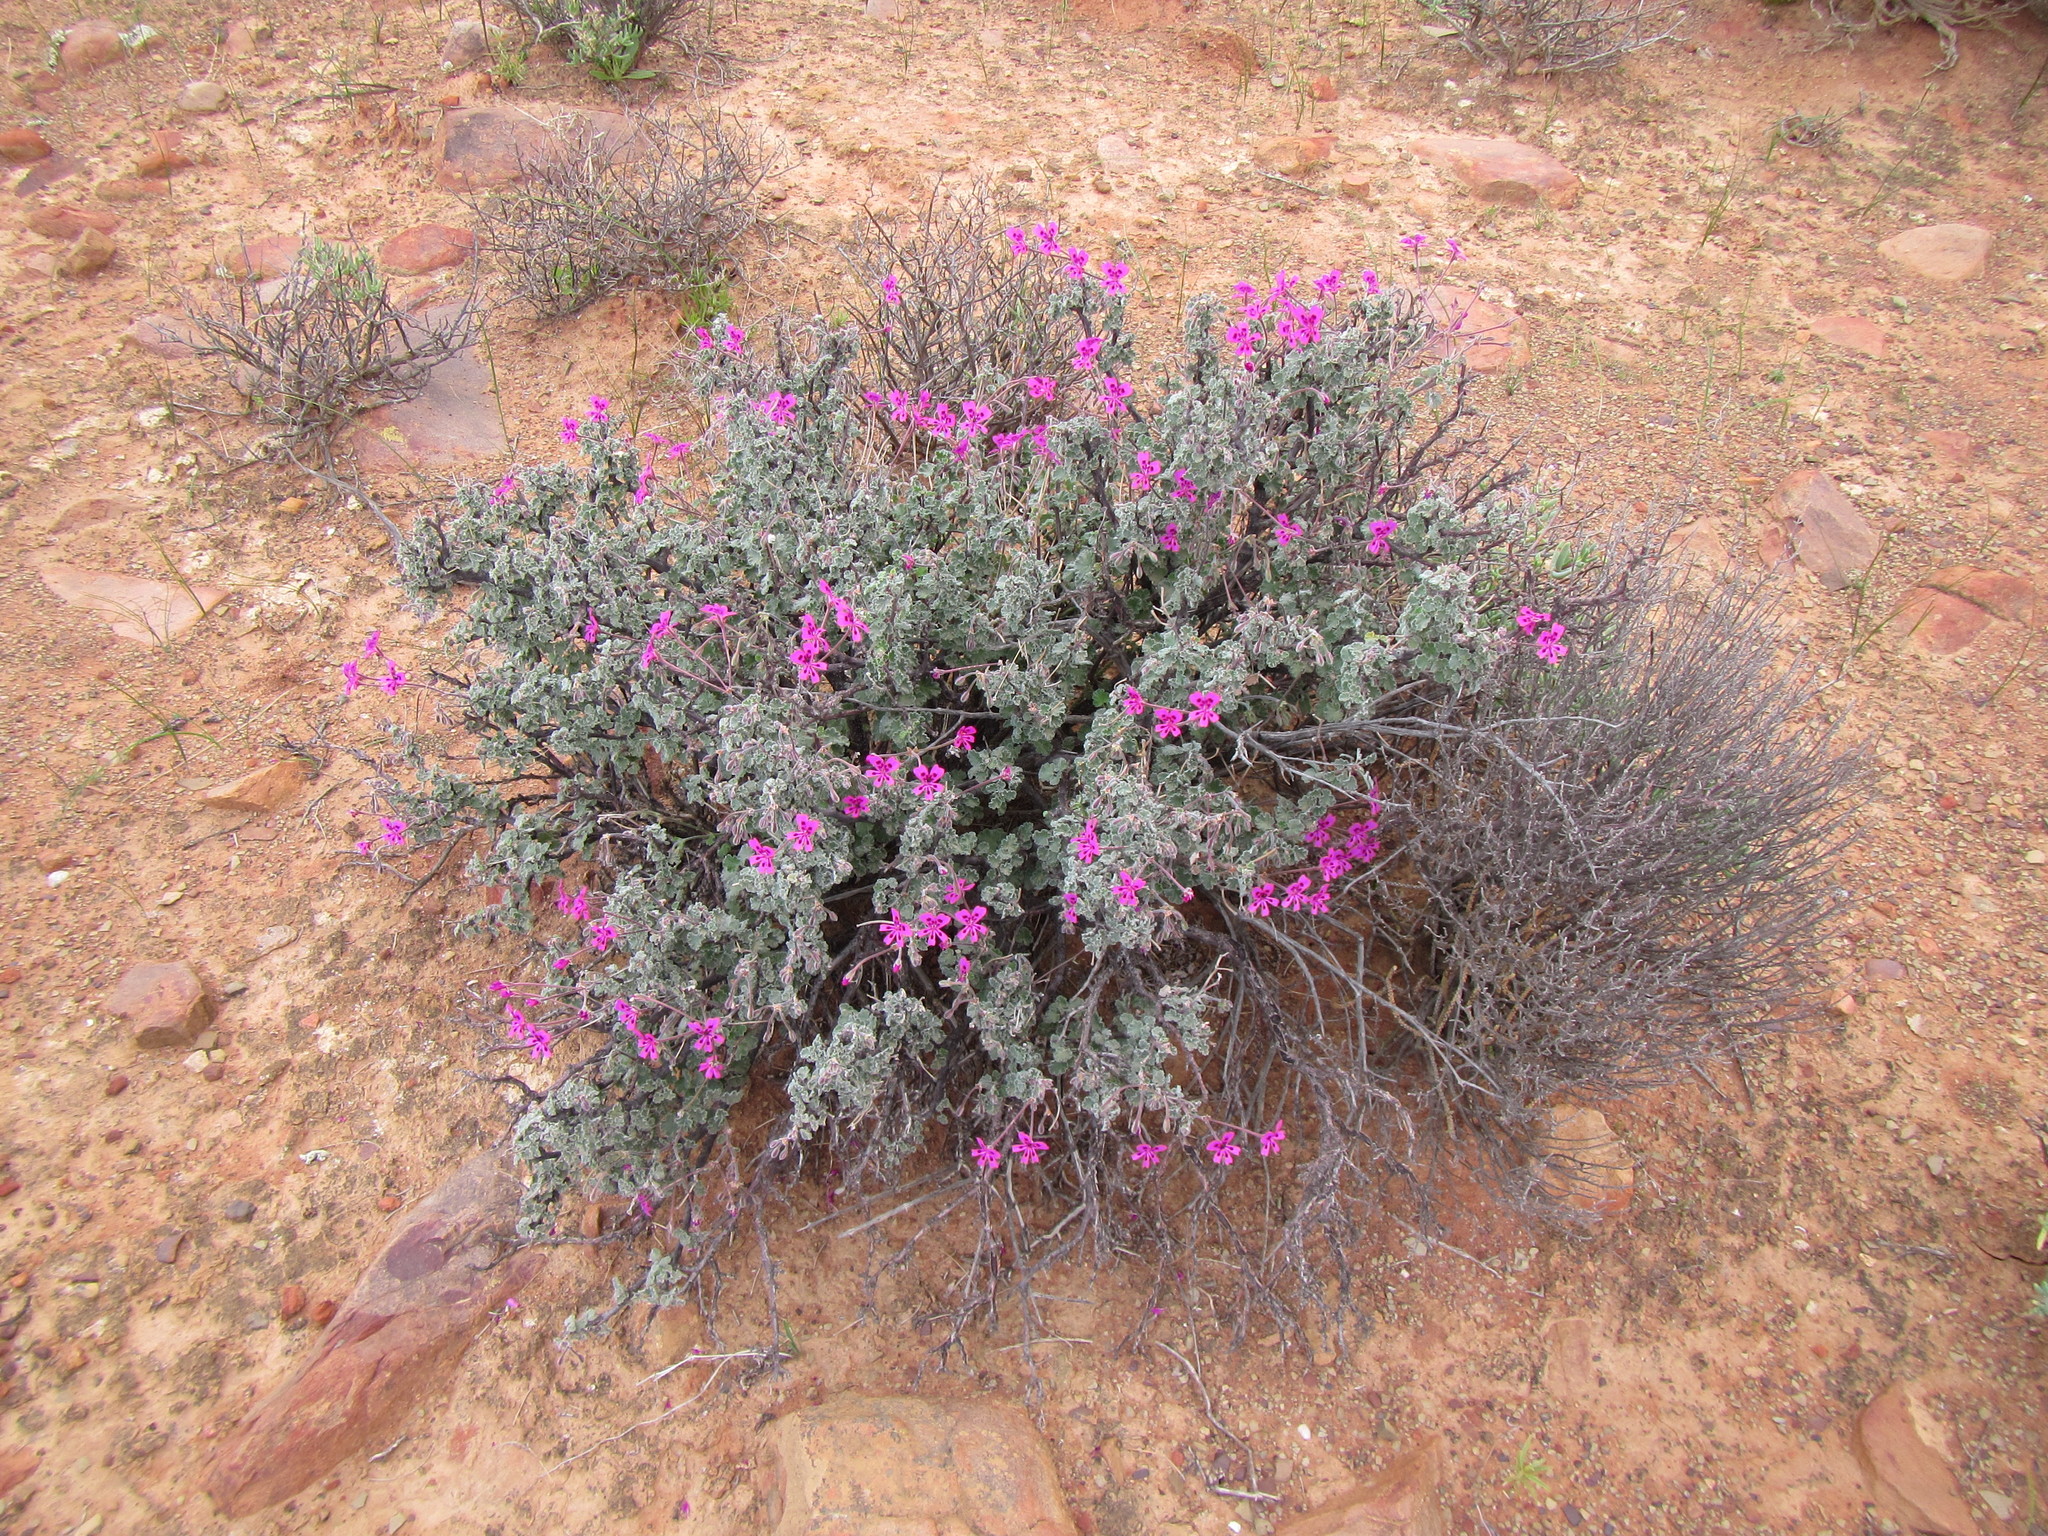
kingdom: Plantae
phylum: Tracheophyta
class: Magnoliopsida
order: Geraniales
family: Geraniaceae
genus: Pelargonium
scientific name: Pelargonium magenteum
